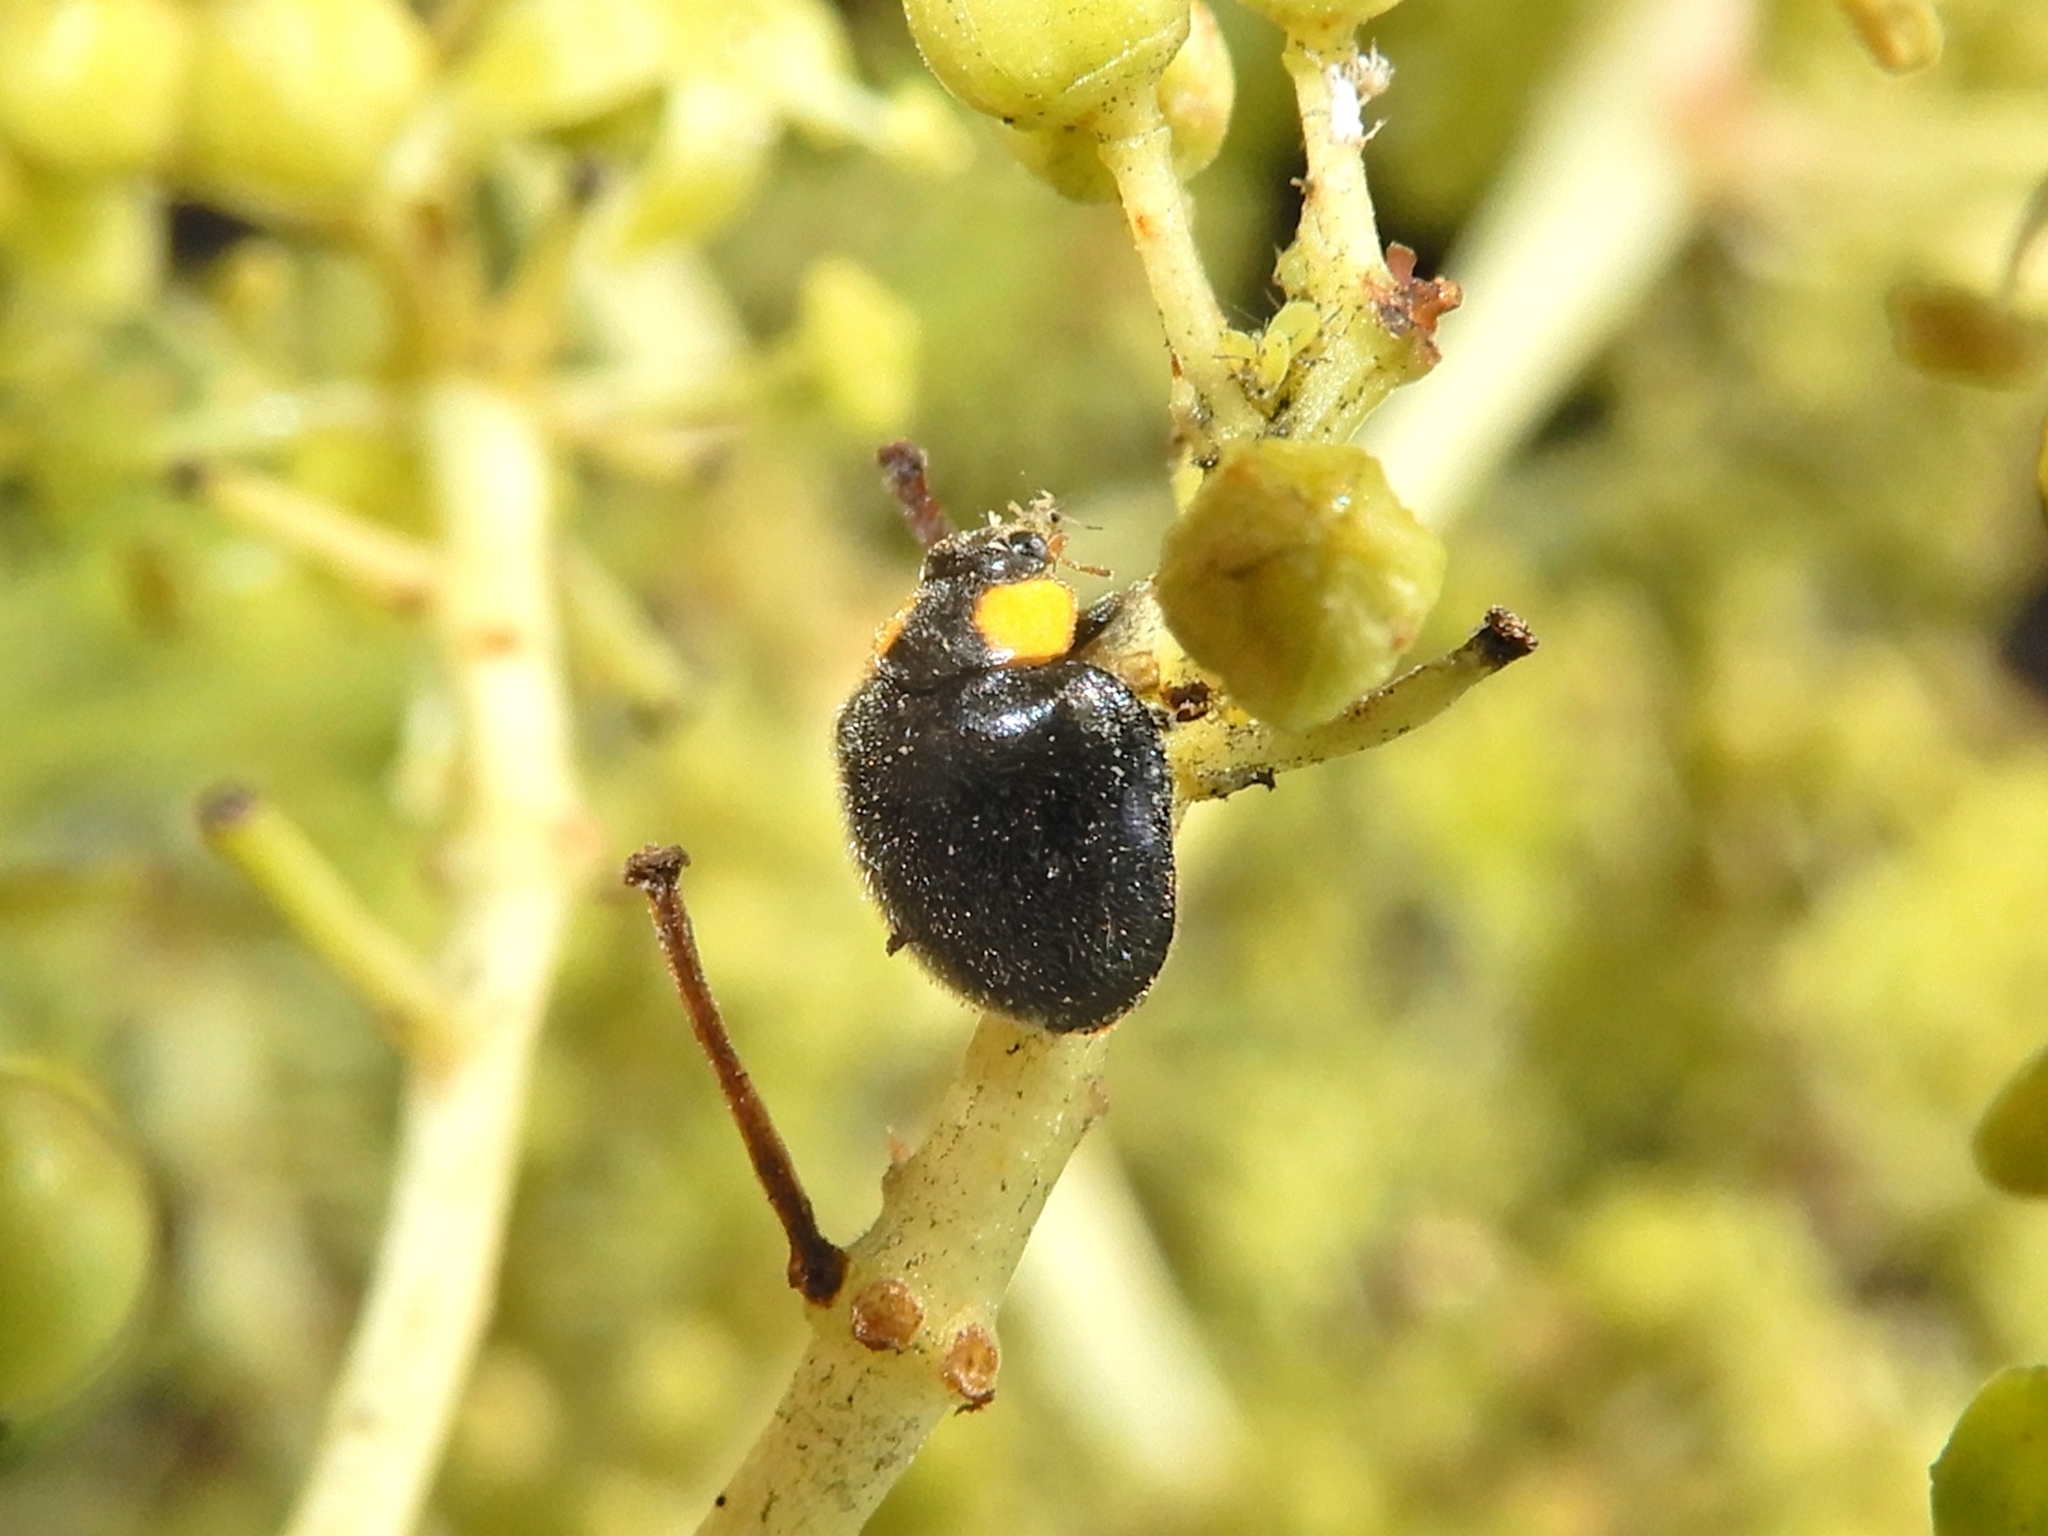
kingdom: Animalia
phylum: Arthropoda
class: Insecta
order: Coleoptera
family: Coccinellidae
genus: Scymnodes
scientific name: Scymnodes lividigaster
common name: Yellowshouldered lady beetle
